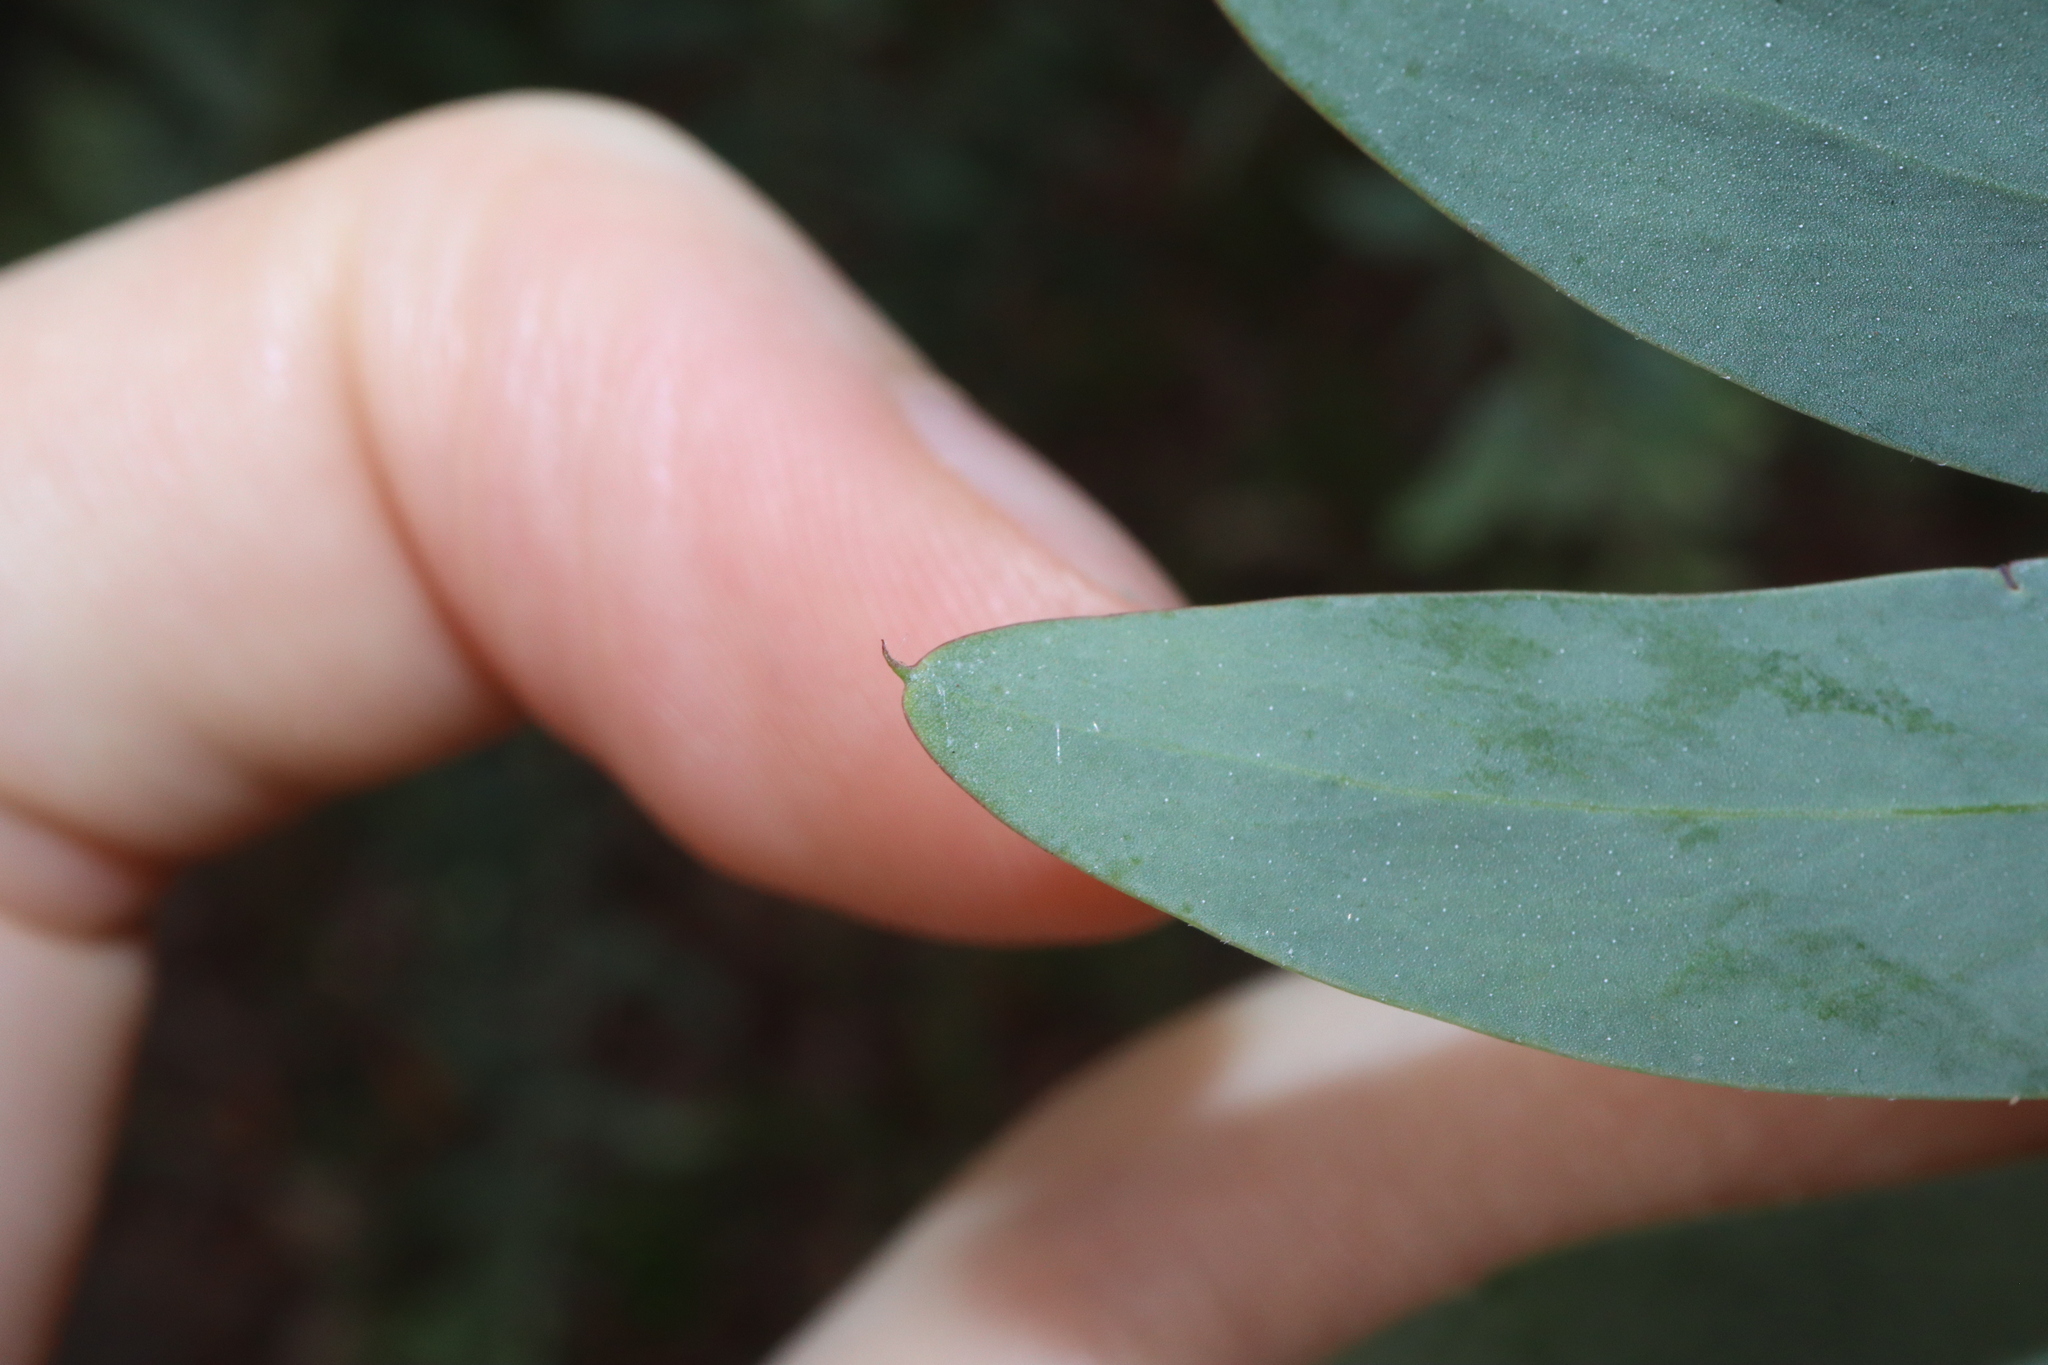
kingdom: Plantae
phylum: Tracheophyta
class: Magnoliopsida
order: Fabales
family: Fabaceae
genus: Acacia
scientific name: Acacia prominens
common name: Gosford wattle
